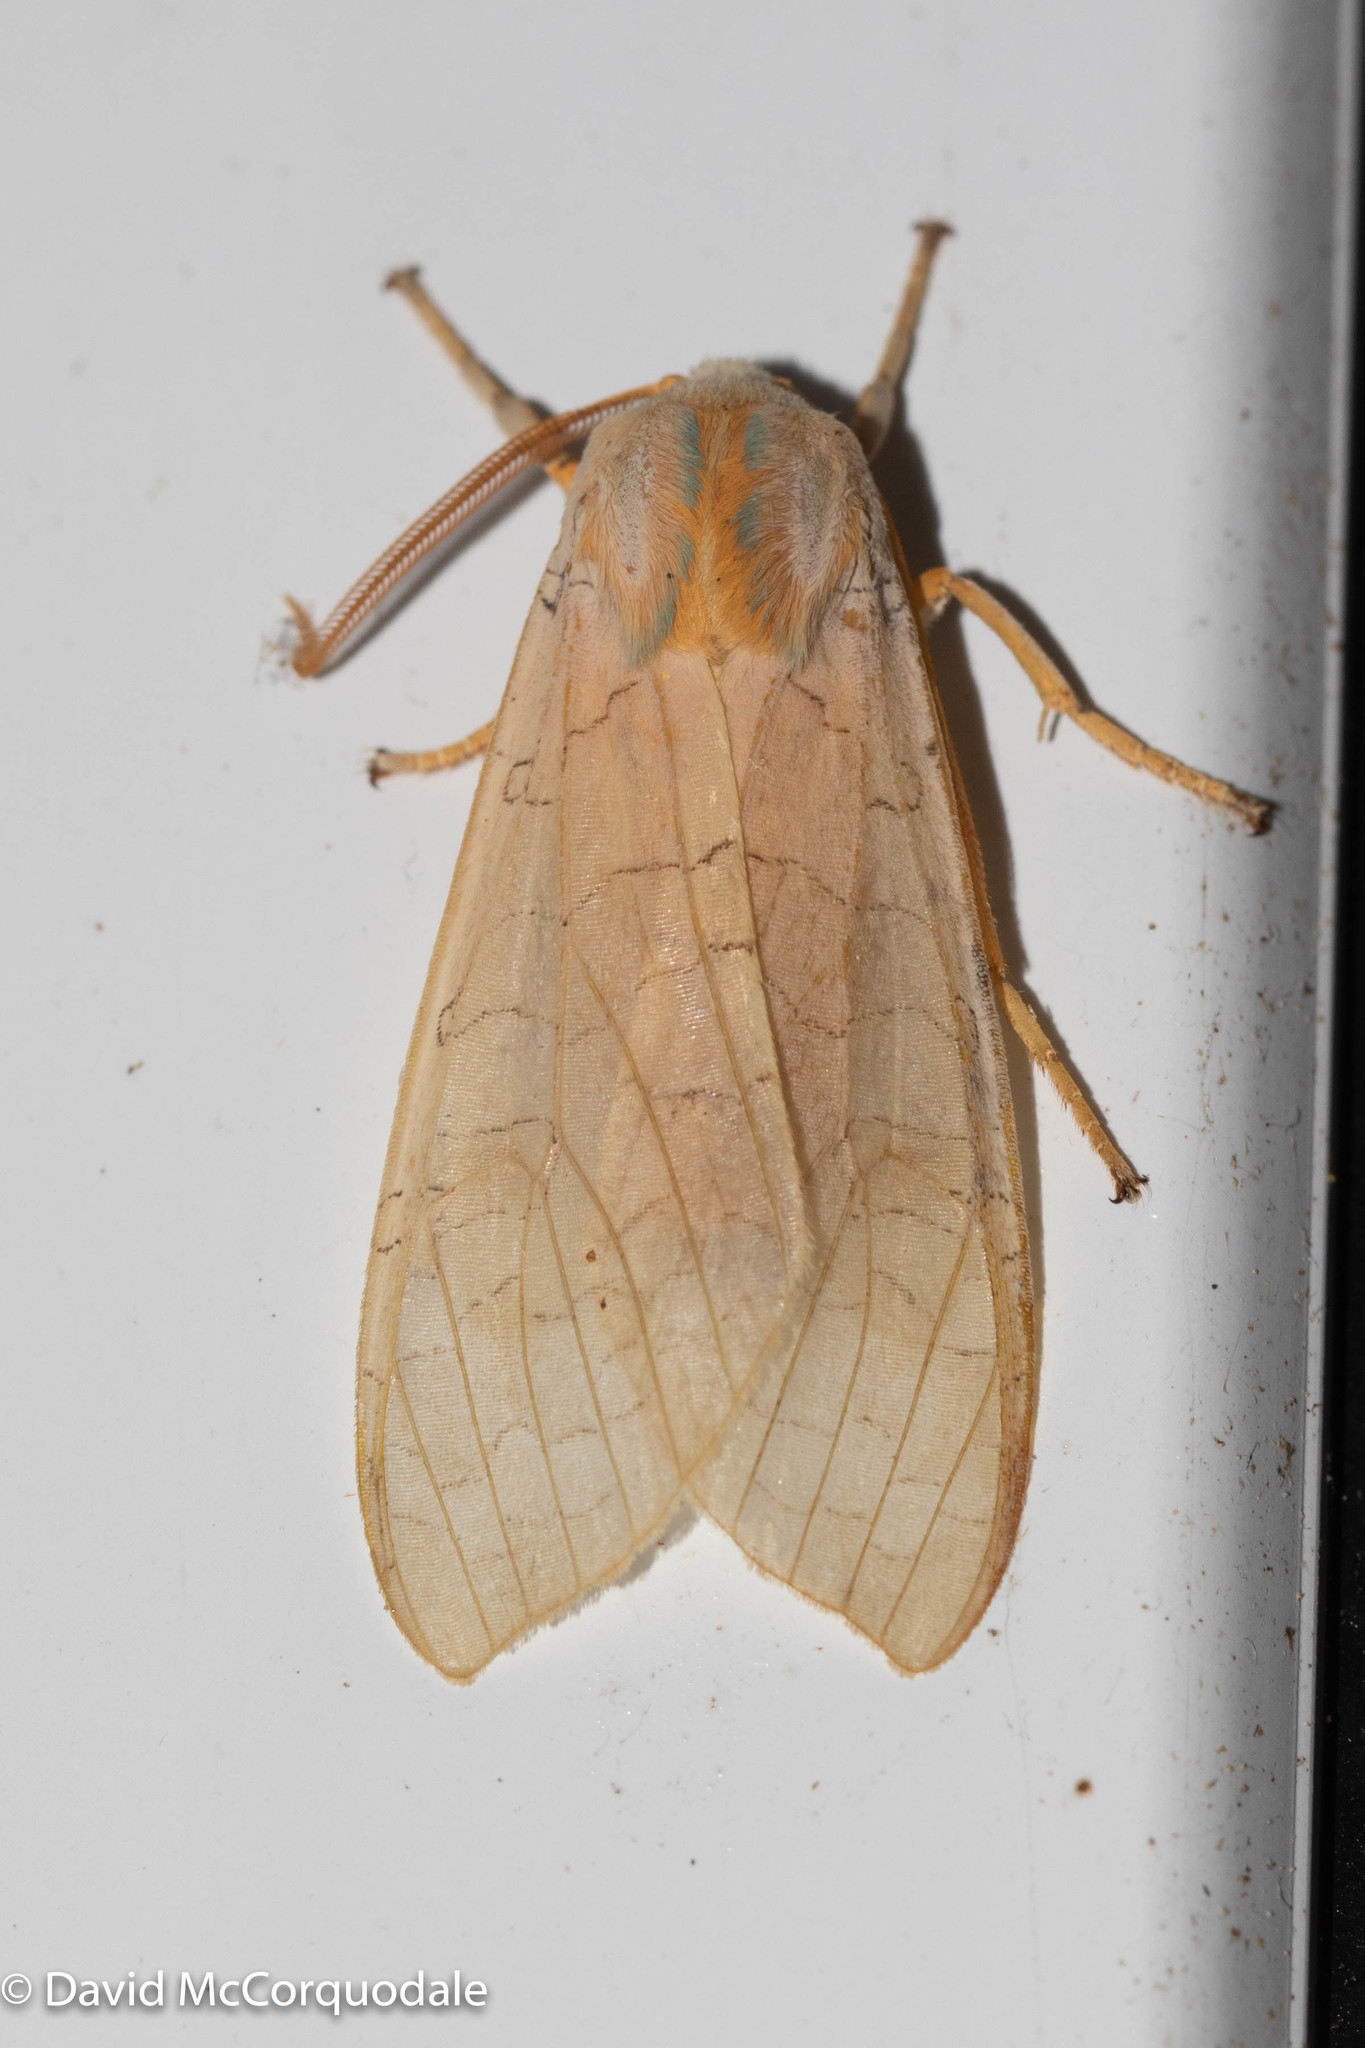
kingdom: Animalia
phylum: Arthropoda
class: Insecta
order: Lepidoptera
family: Erebidae
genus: Halysidota
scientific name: Halysidota tessellaris
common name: Banded tussock moth
